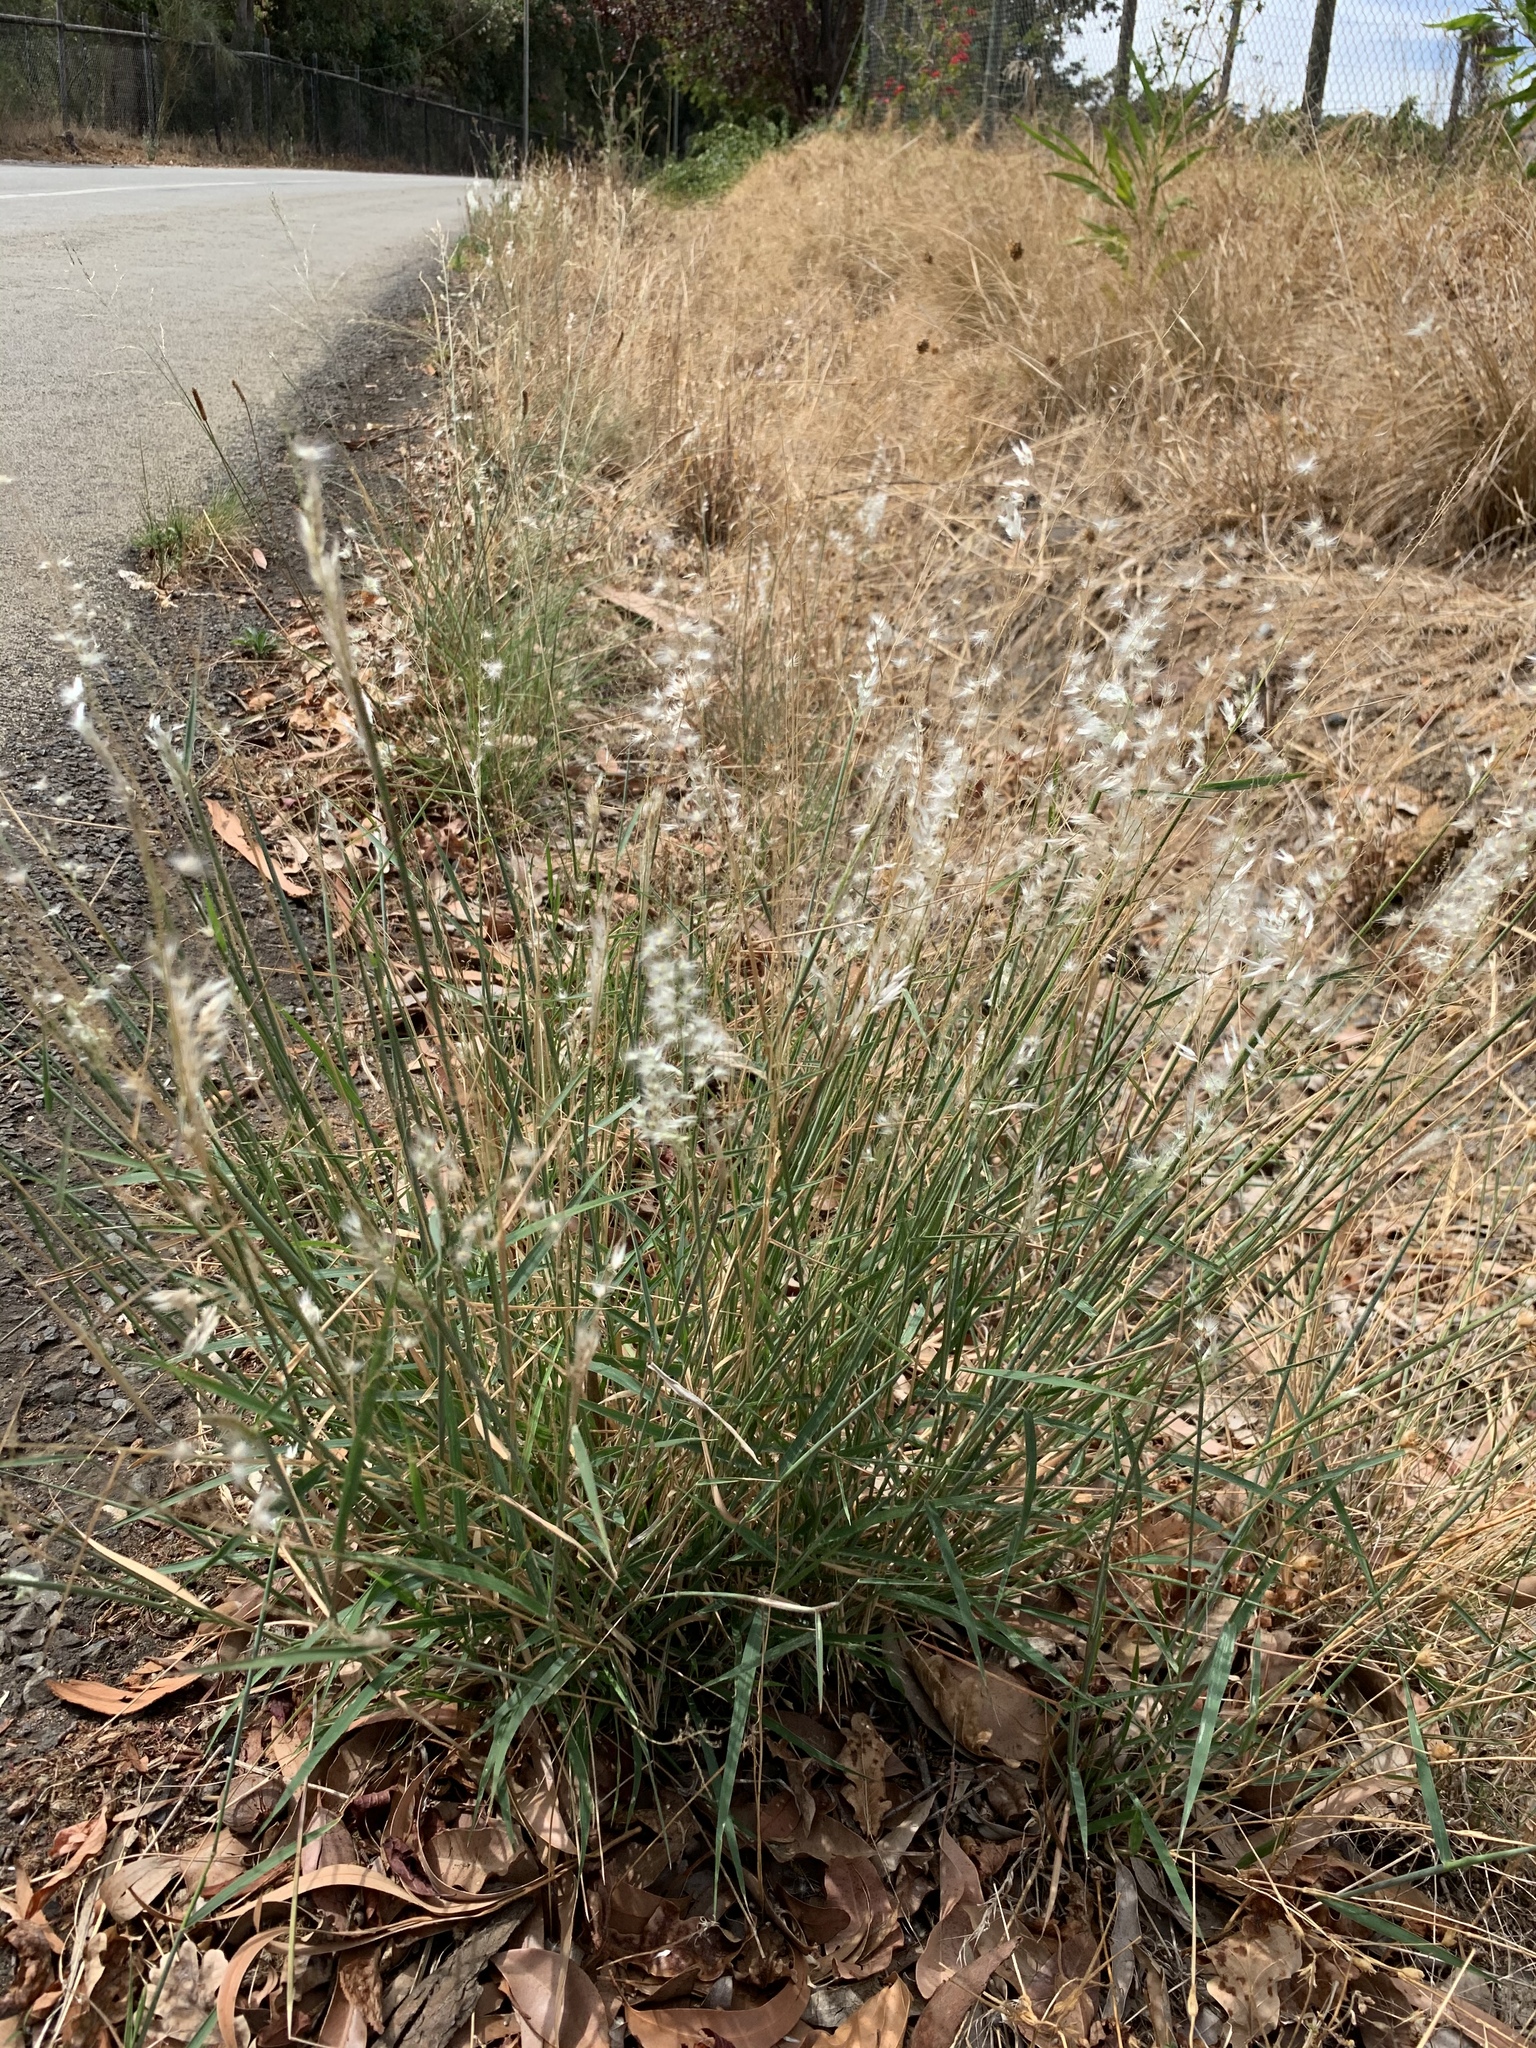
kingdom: Plantae
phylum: Tracheophyta
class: Liliopsida
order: Poales
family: Poaceae
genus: Melinis
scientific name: Melinis repens
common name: Rose natal grass
